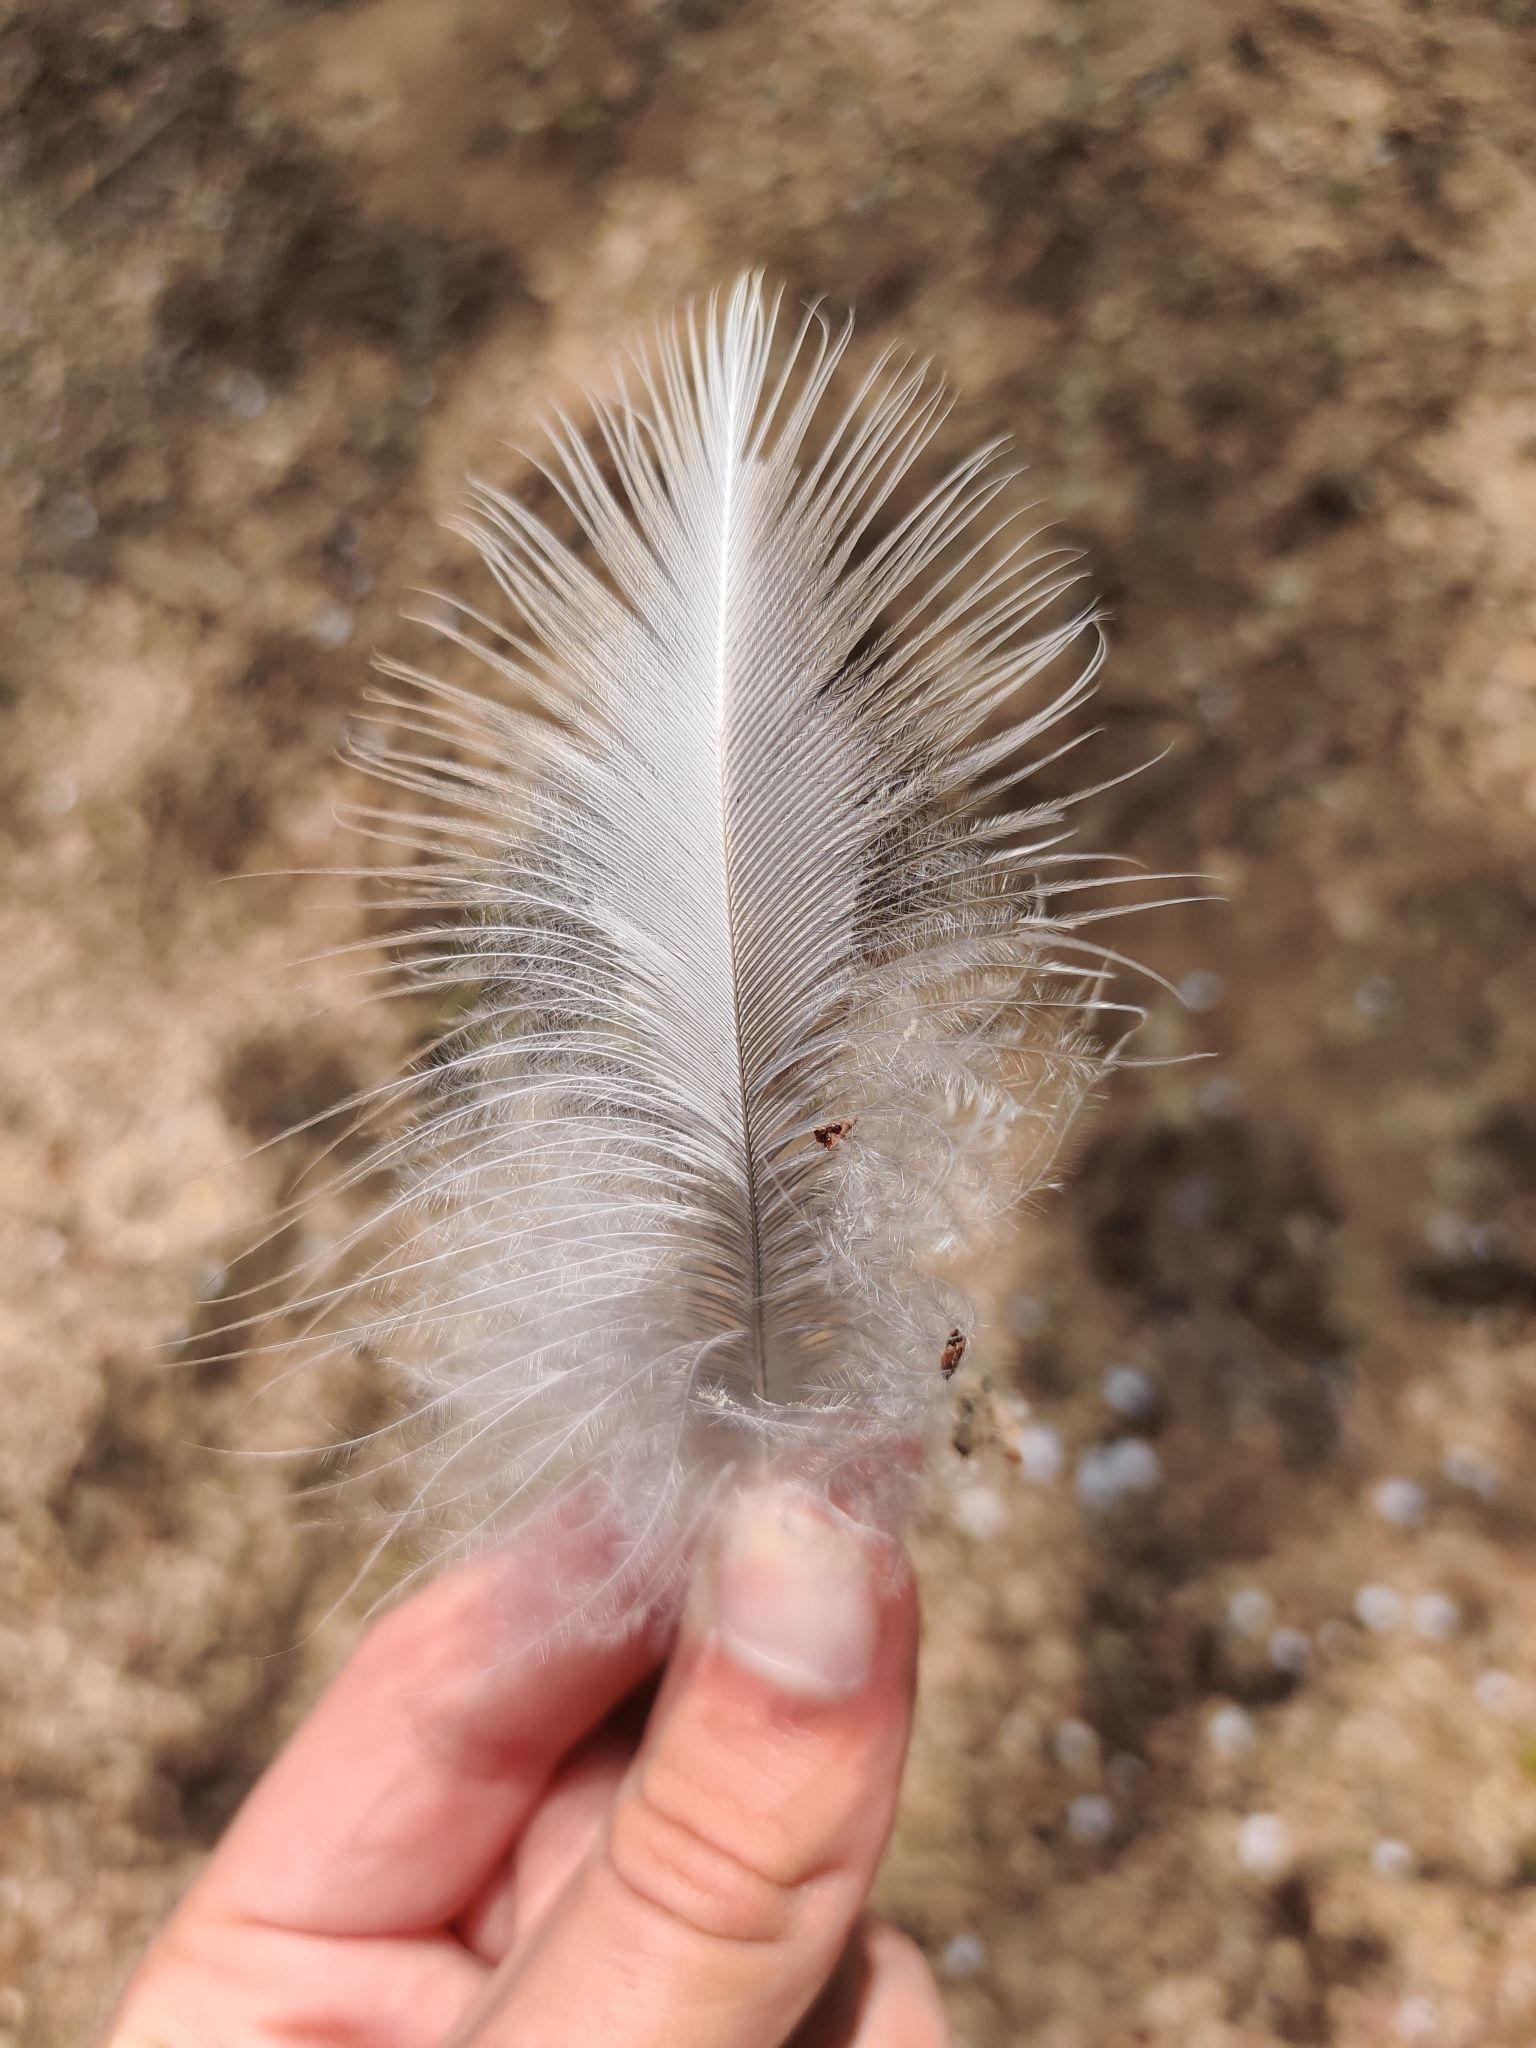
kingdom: Animalia
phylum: Chordata
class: Aves
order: Pelecaniformes
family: Ardeidae
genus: Ardea
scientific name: Ardea herodias
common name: Great blue heron
